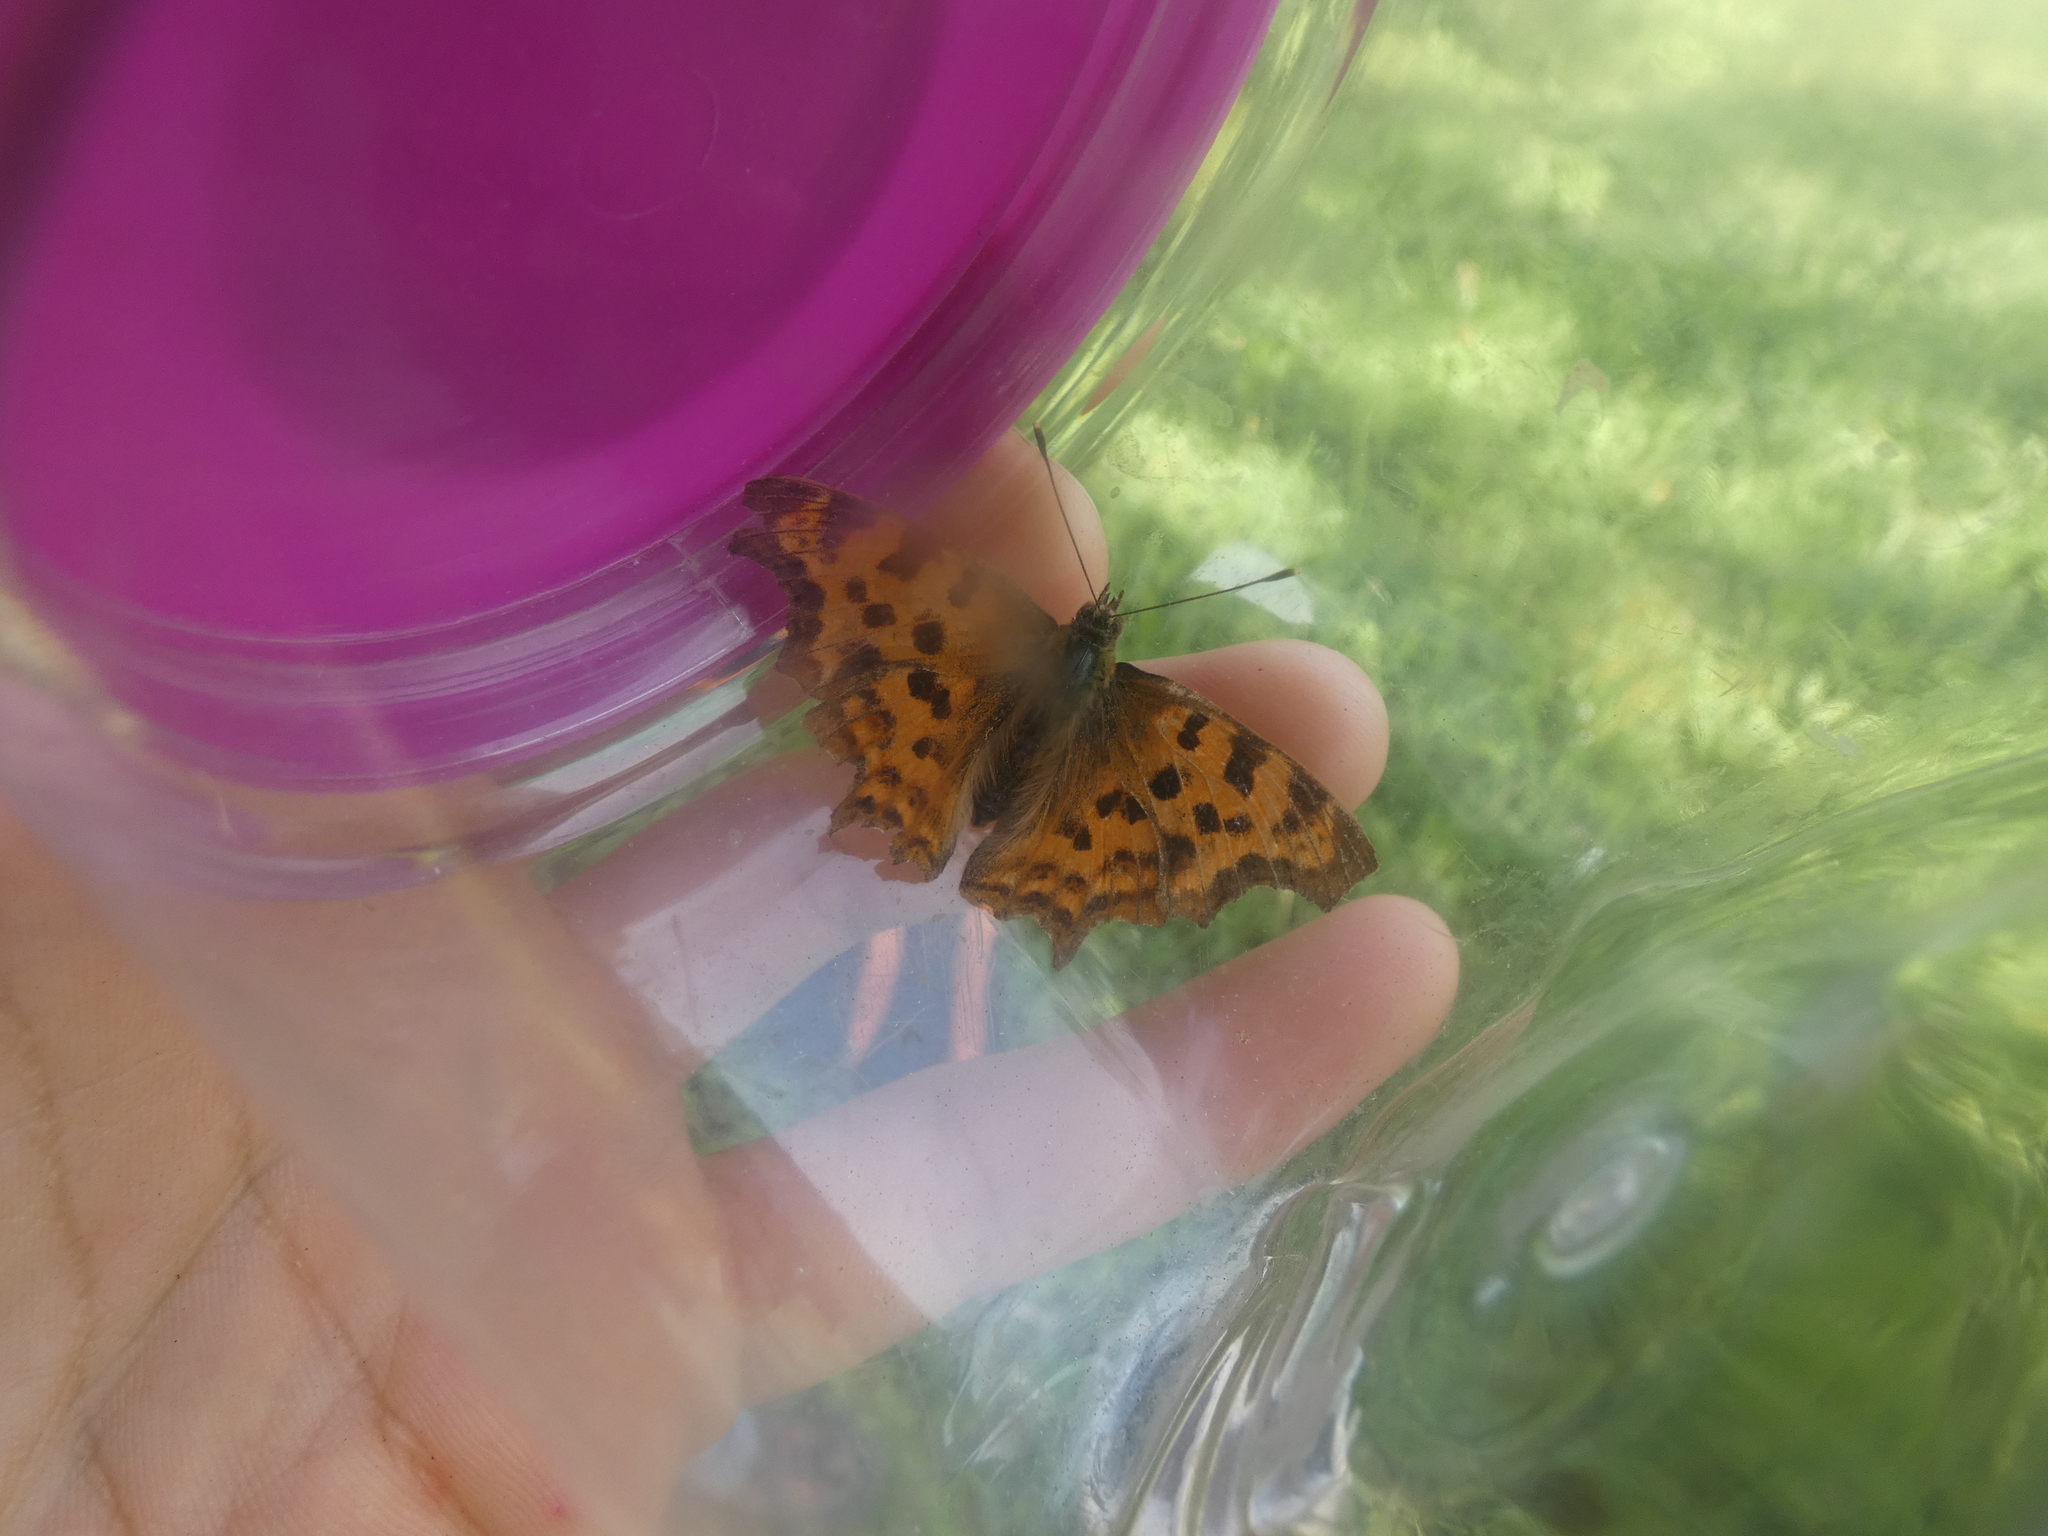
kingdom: Animalia
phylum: Arthropoda
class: Insecta
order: Lepidoptera
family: Nymphalidae
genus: Polygonia
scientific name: Polygonia c-album
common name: Comma
